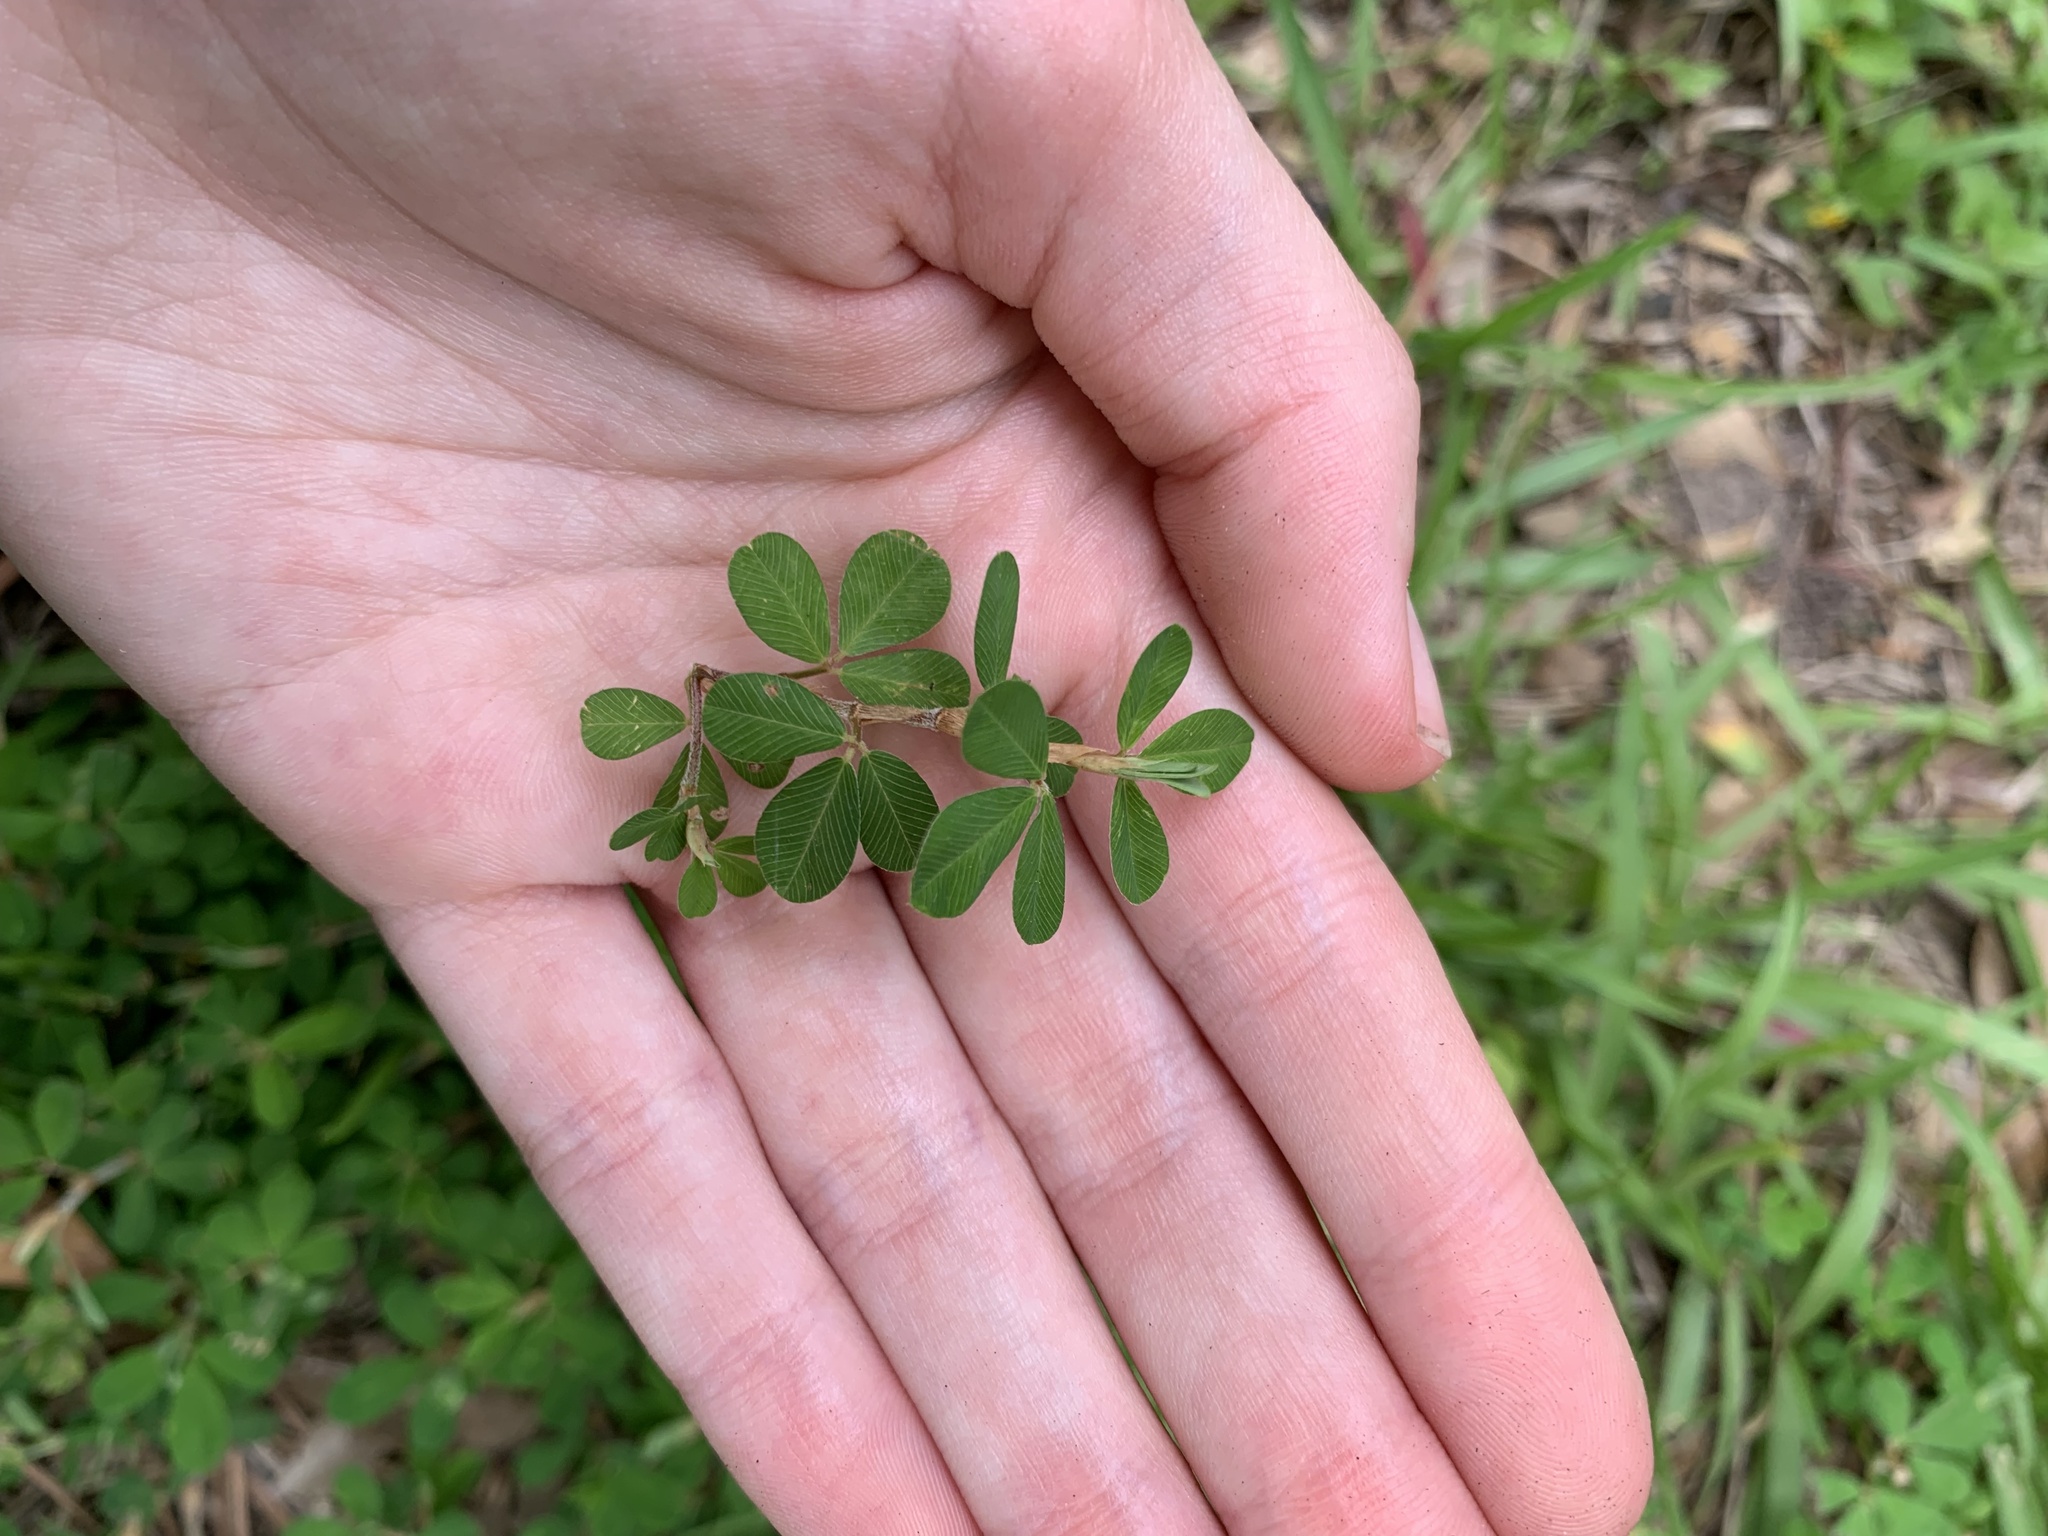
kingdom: Plantae
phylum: Tracheophyta
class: Magnoliopsida
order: Fabales
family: Fabaceae
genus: Kummerowia
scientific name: Kummerowia striata
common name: Japanese clover
